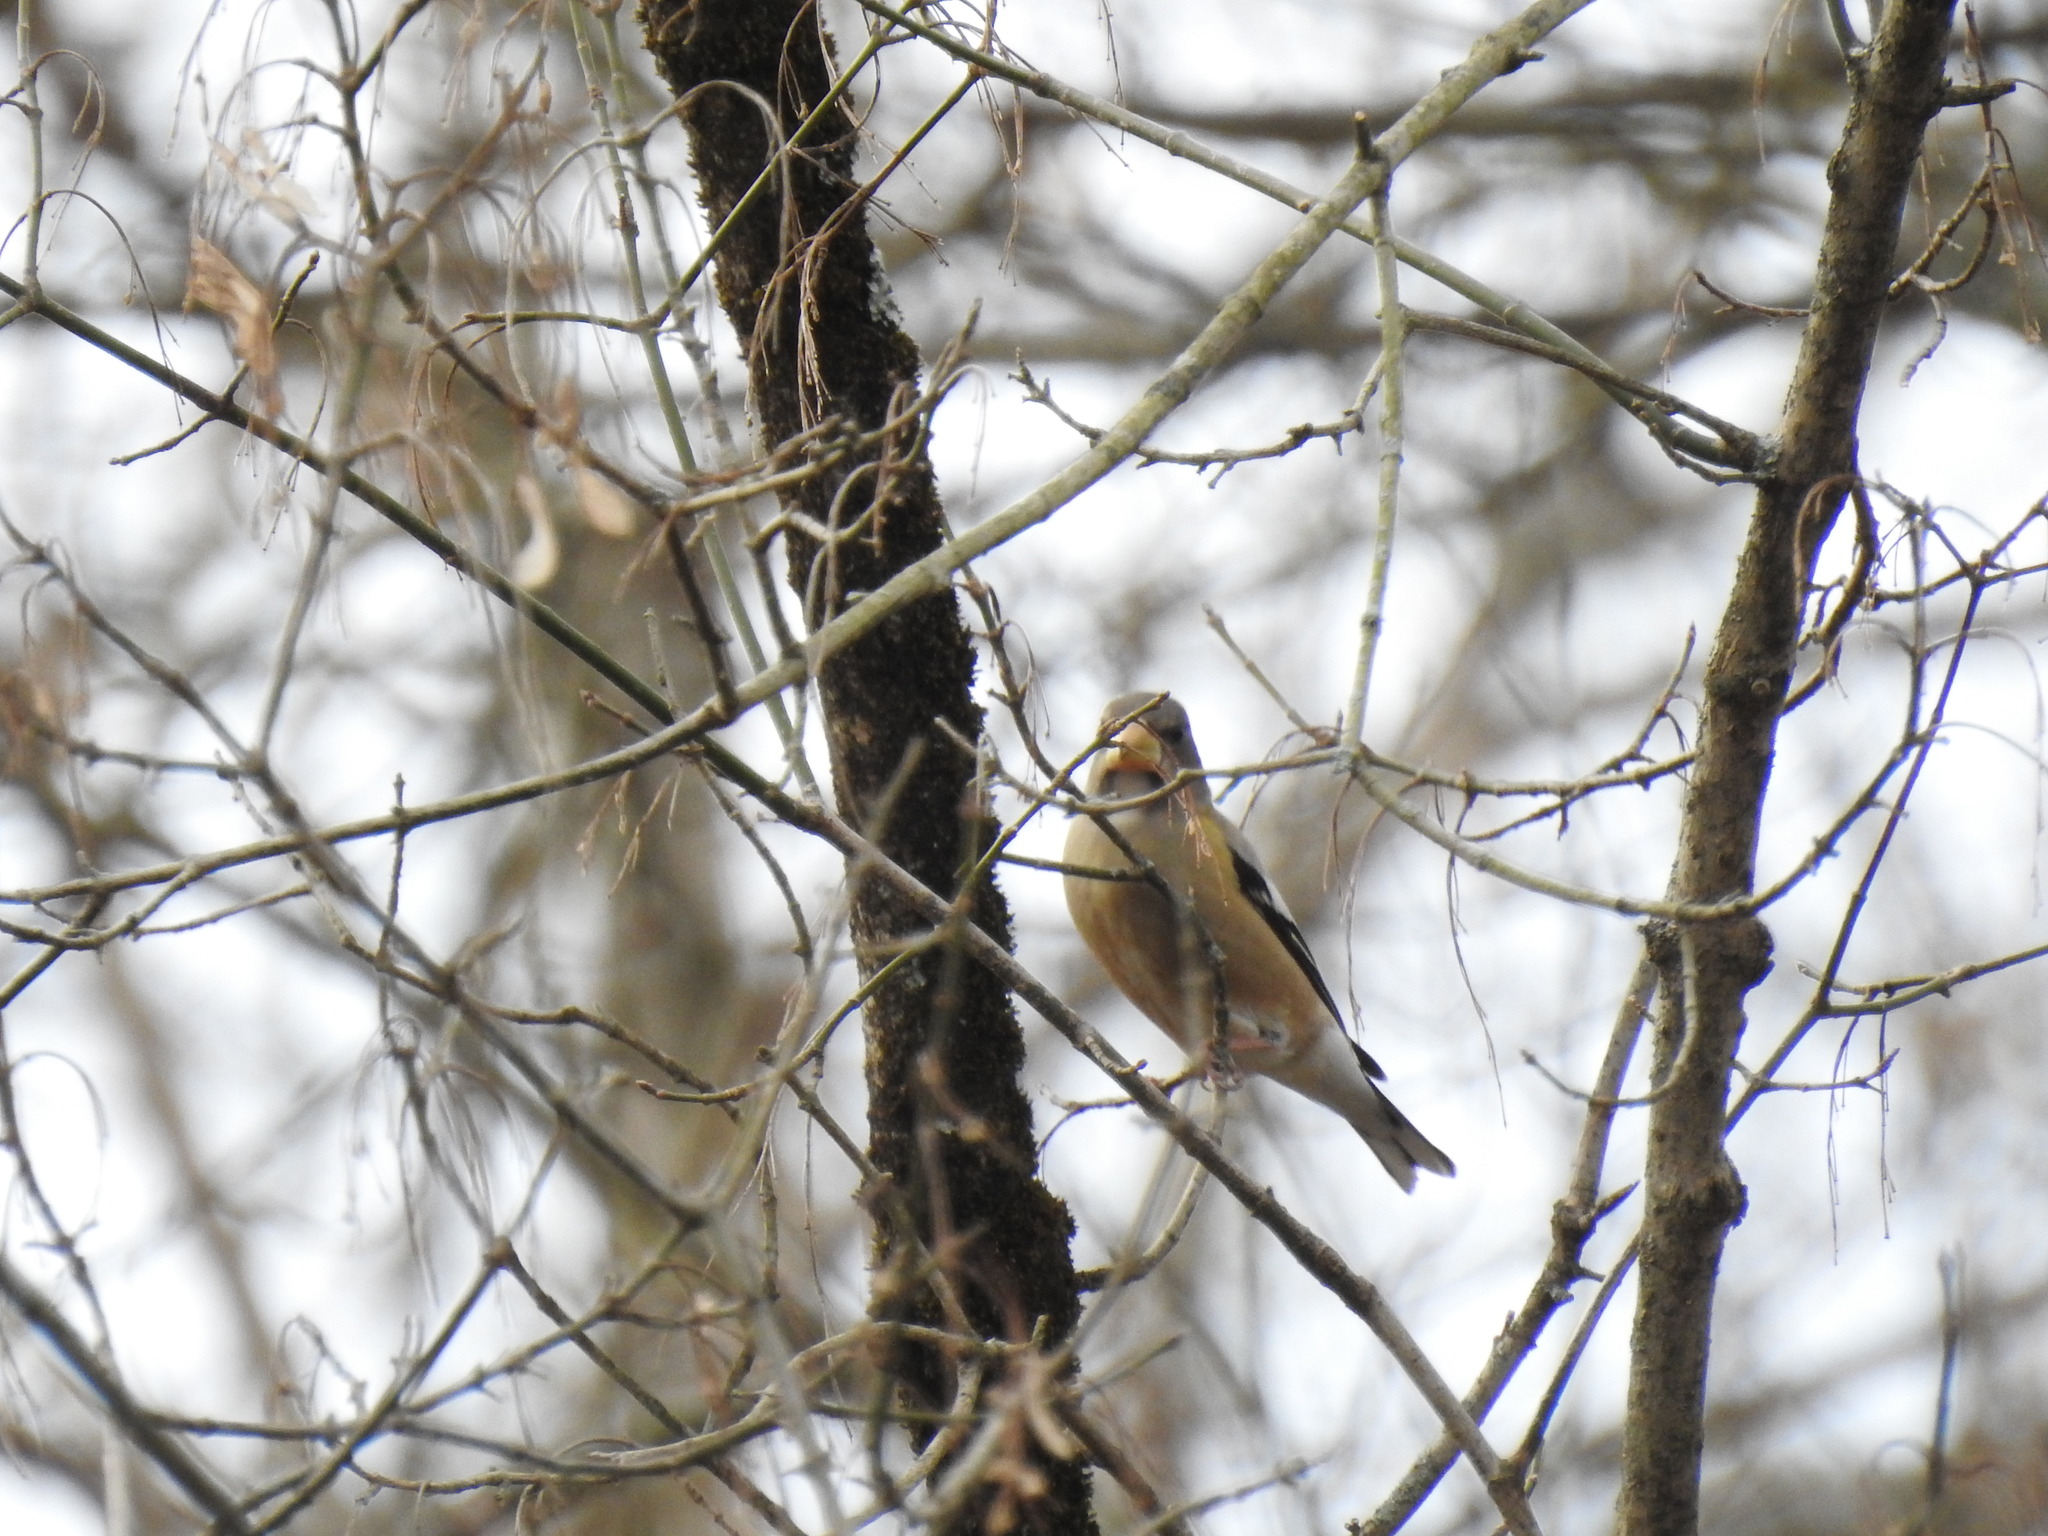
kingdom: Animalia
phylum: Chordata
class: Aves
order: Passeriformes
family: Fringillidae
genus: Hesperiphona
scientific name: Hesperiphona vespertina
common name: Evening grosbeak
